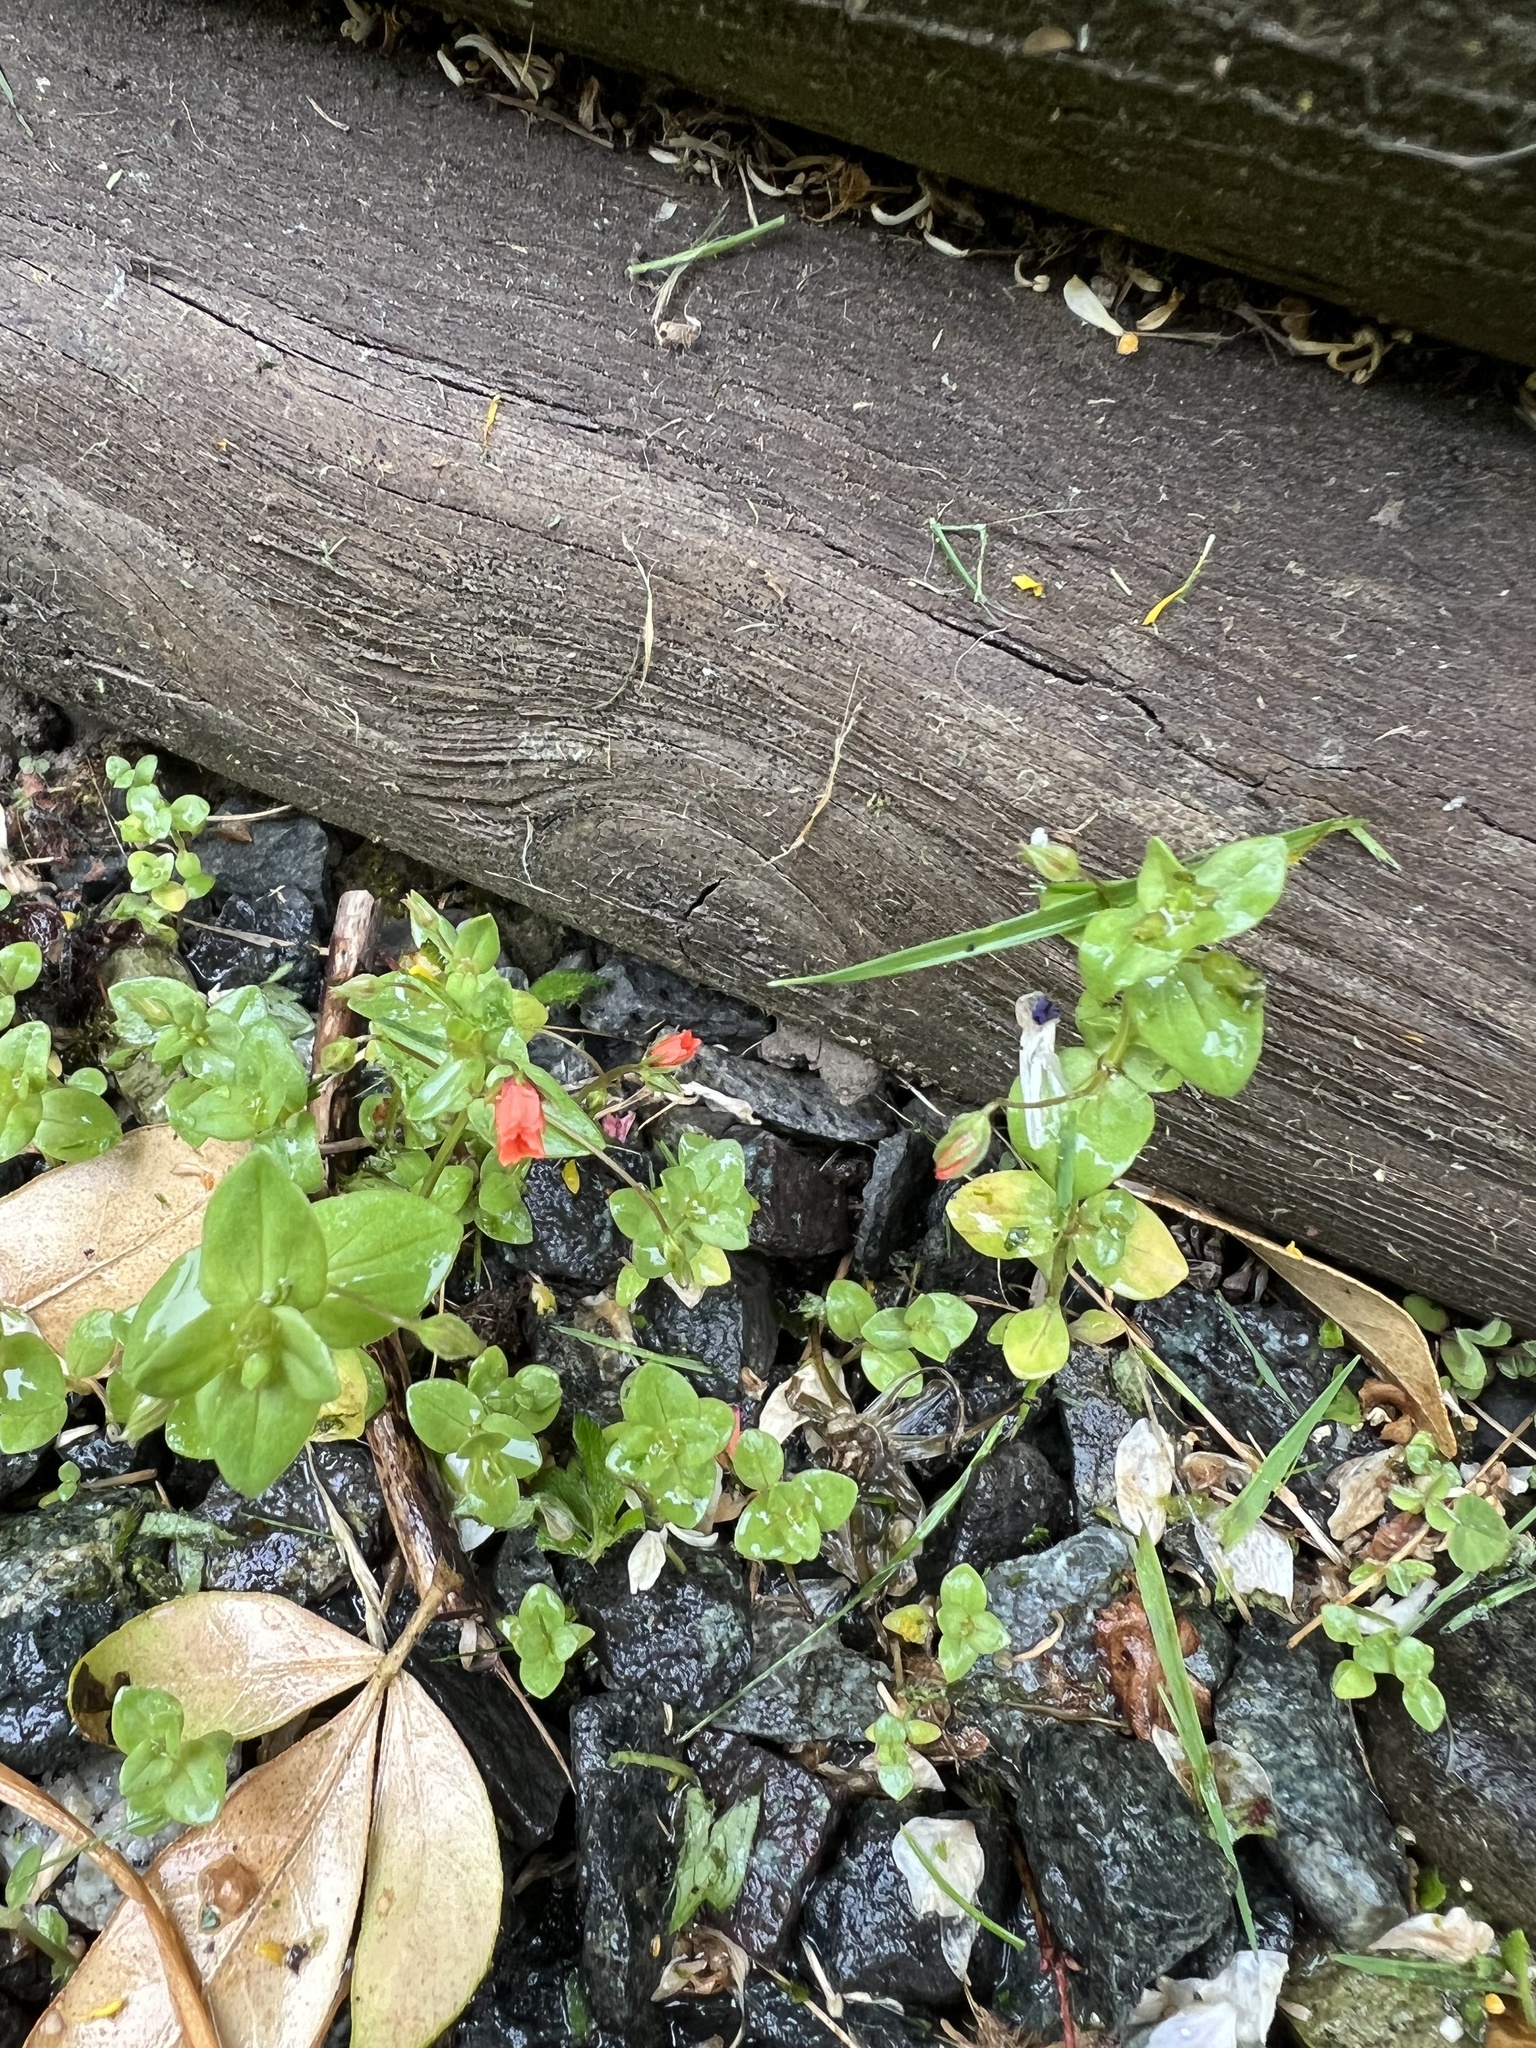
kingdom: Plantae
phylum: Tracheophyta
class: Magnoliopsida
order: Ericales
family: Primulaceae
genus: Lysimachia
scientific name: Lysimachia arvensis
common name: Scarlet pimpernel
